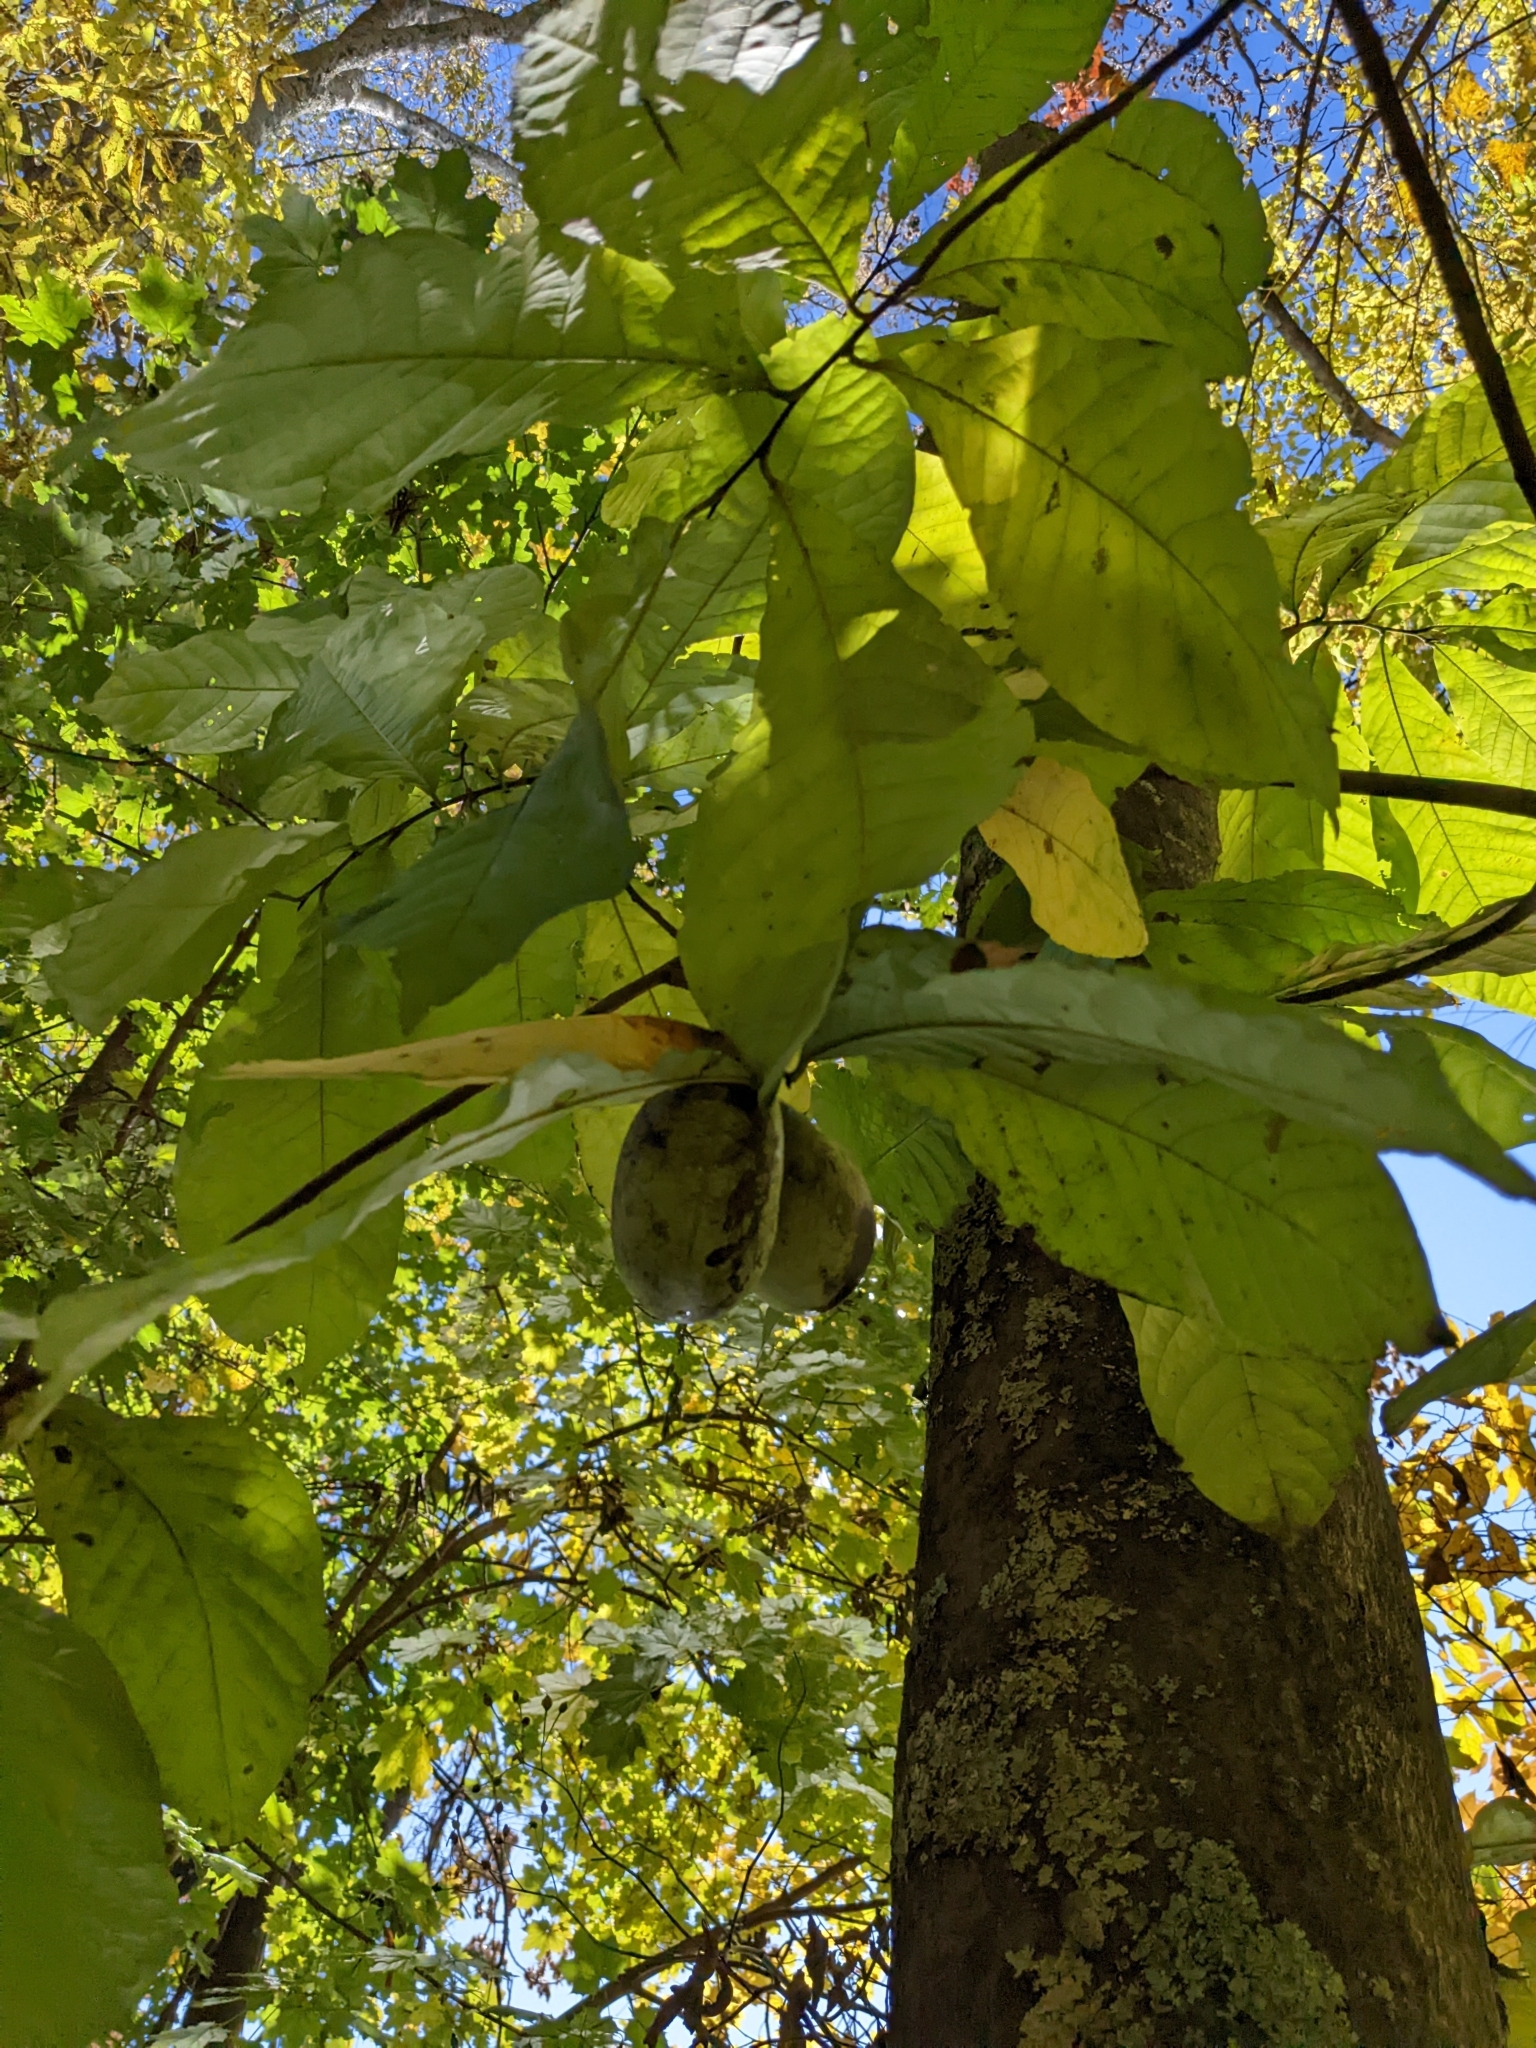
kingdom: Plantae
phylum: Tracheophyta
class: Magnoliopsida
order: Magnoliales
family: Annonaceae
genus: Asimina
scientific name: Asimina triloba
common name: Dog-banana
